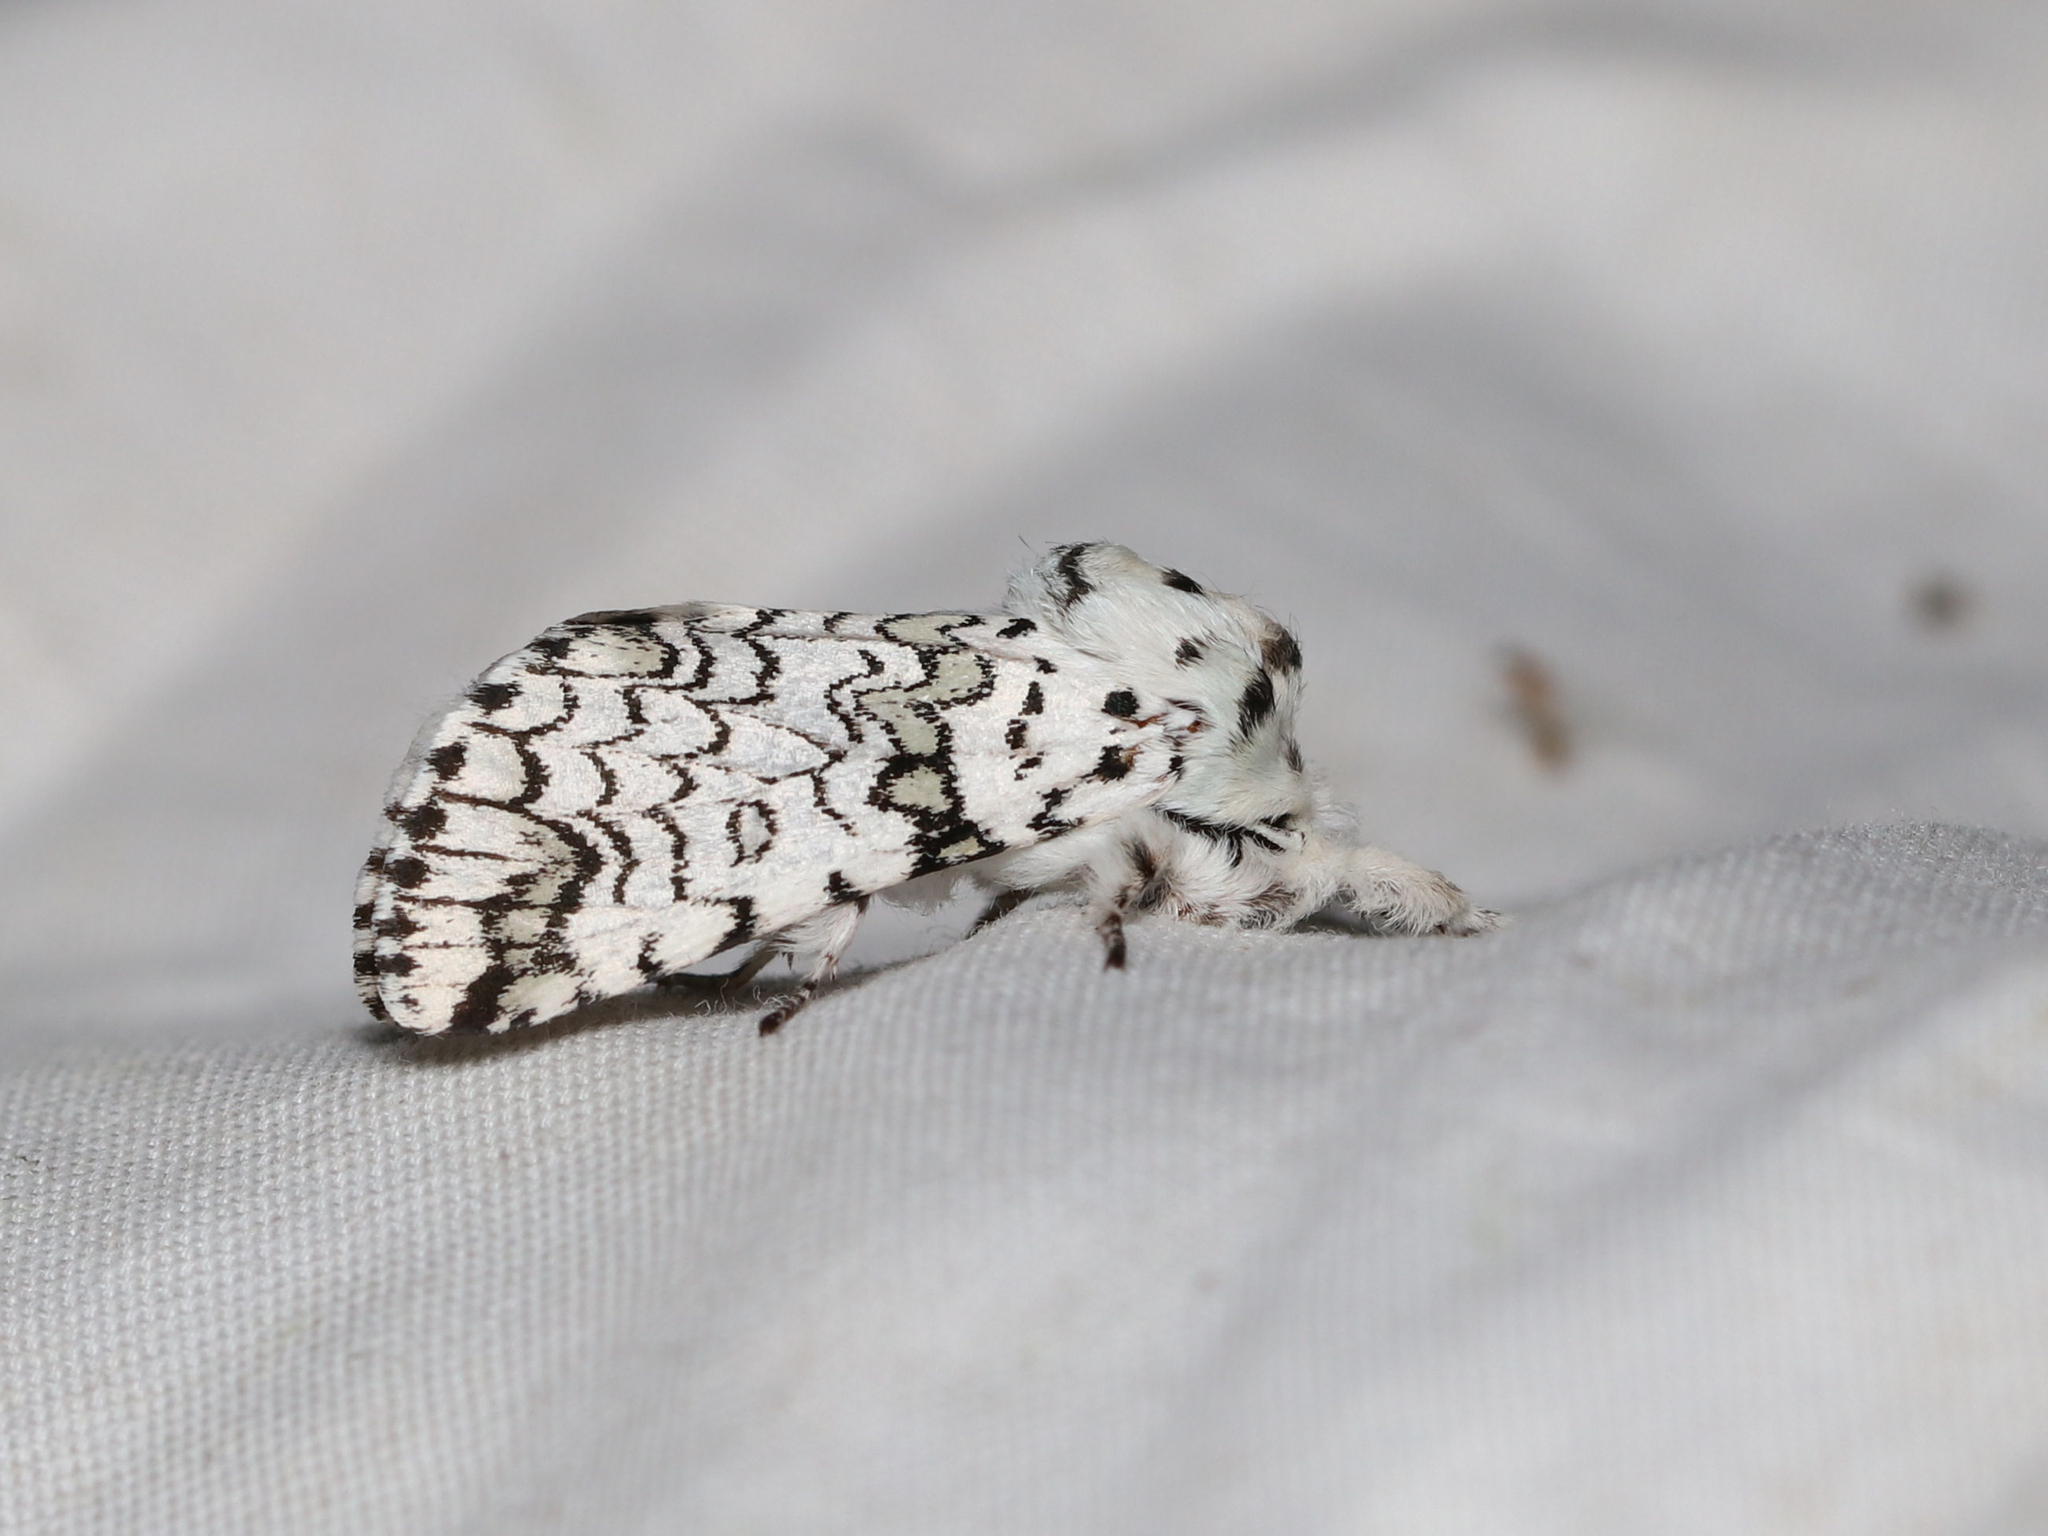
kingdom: Animalia
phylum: Arthropoda
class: Insecta
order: Lepidoptera
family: Notodontidae
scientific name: Notodontidae
